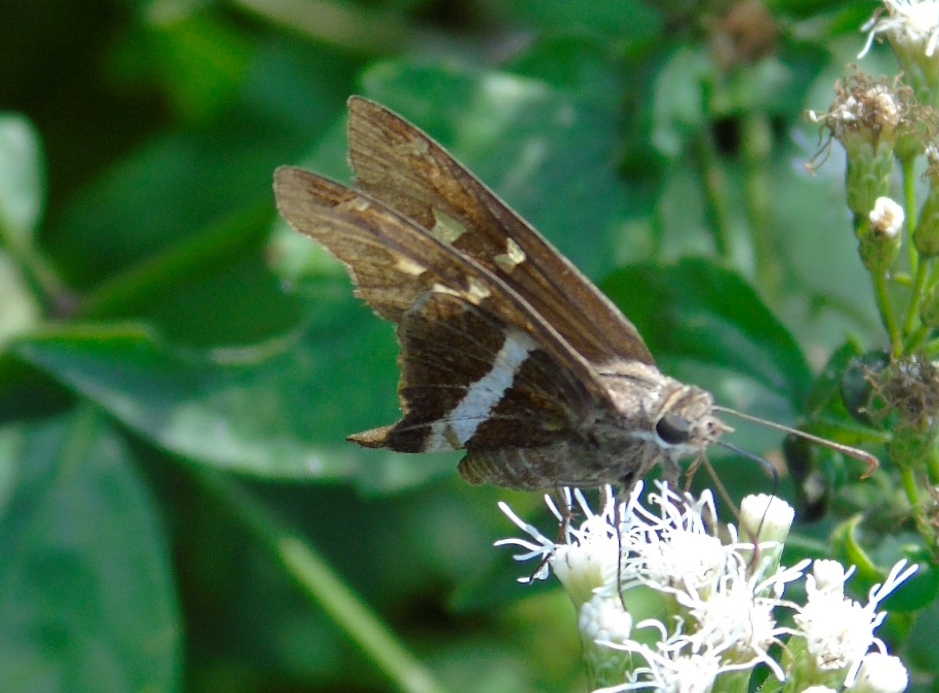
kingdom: Animalia
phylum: Arthropoda
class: Insecta
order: Lepidoptera
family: Hesperiidae
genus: Chioides
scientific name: Chioides catillus
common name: Silverbanded skipper
